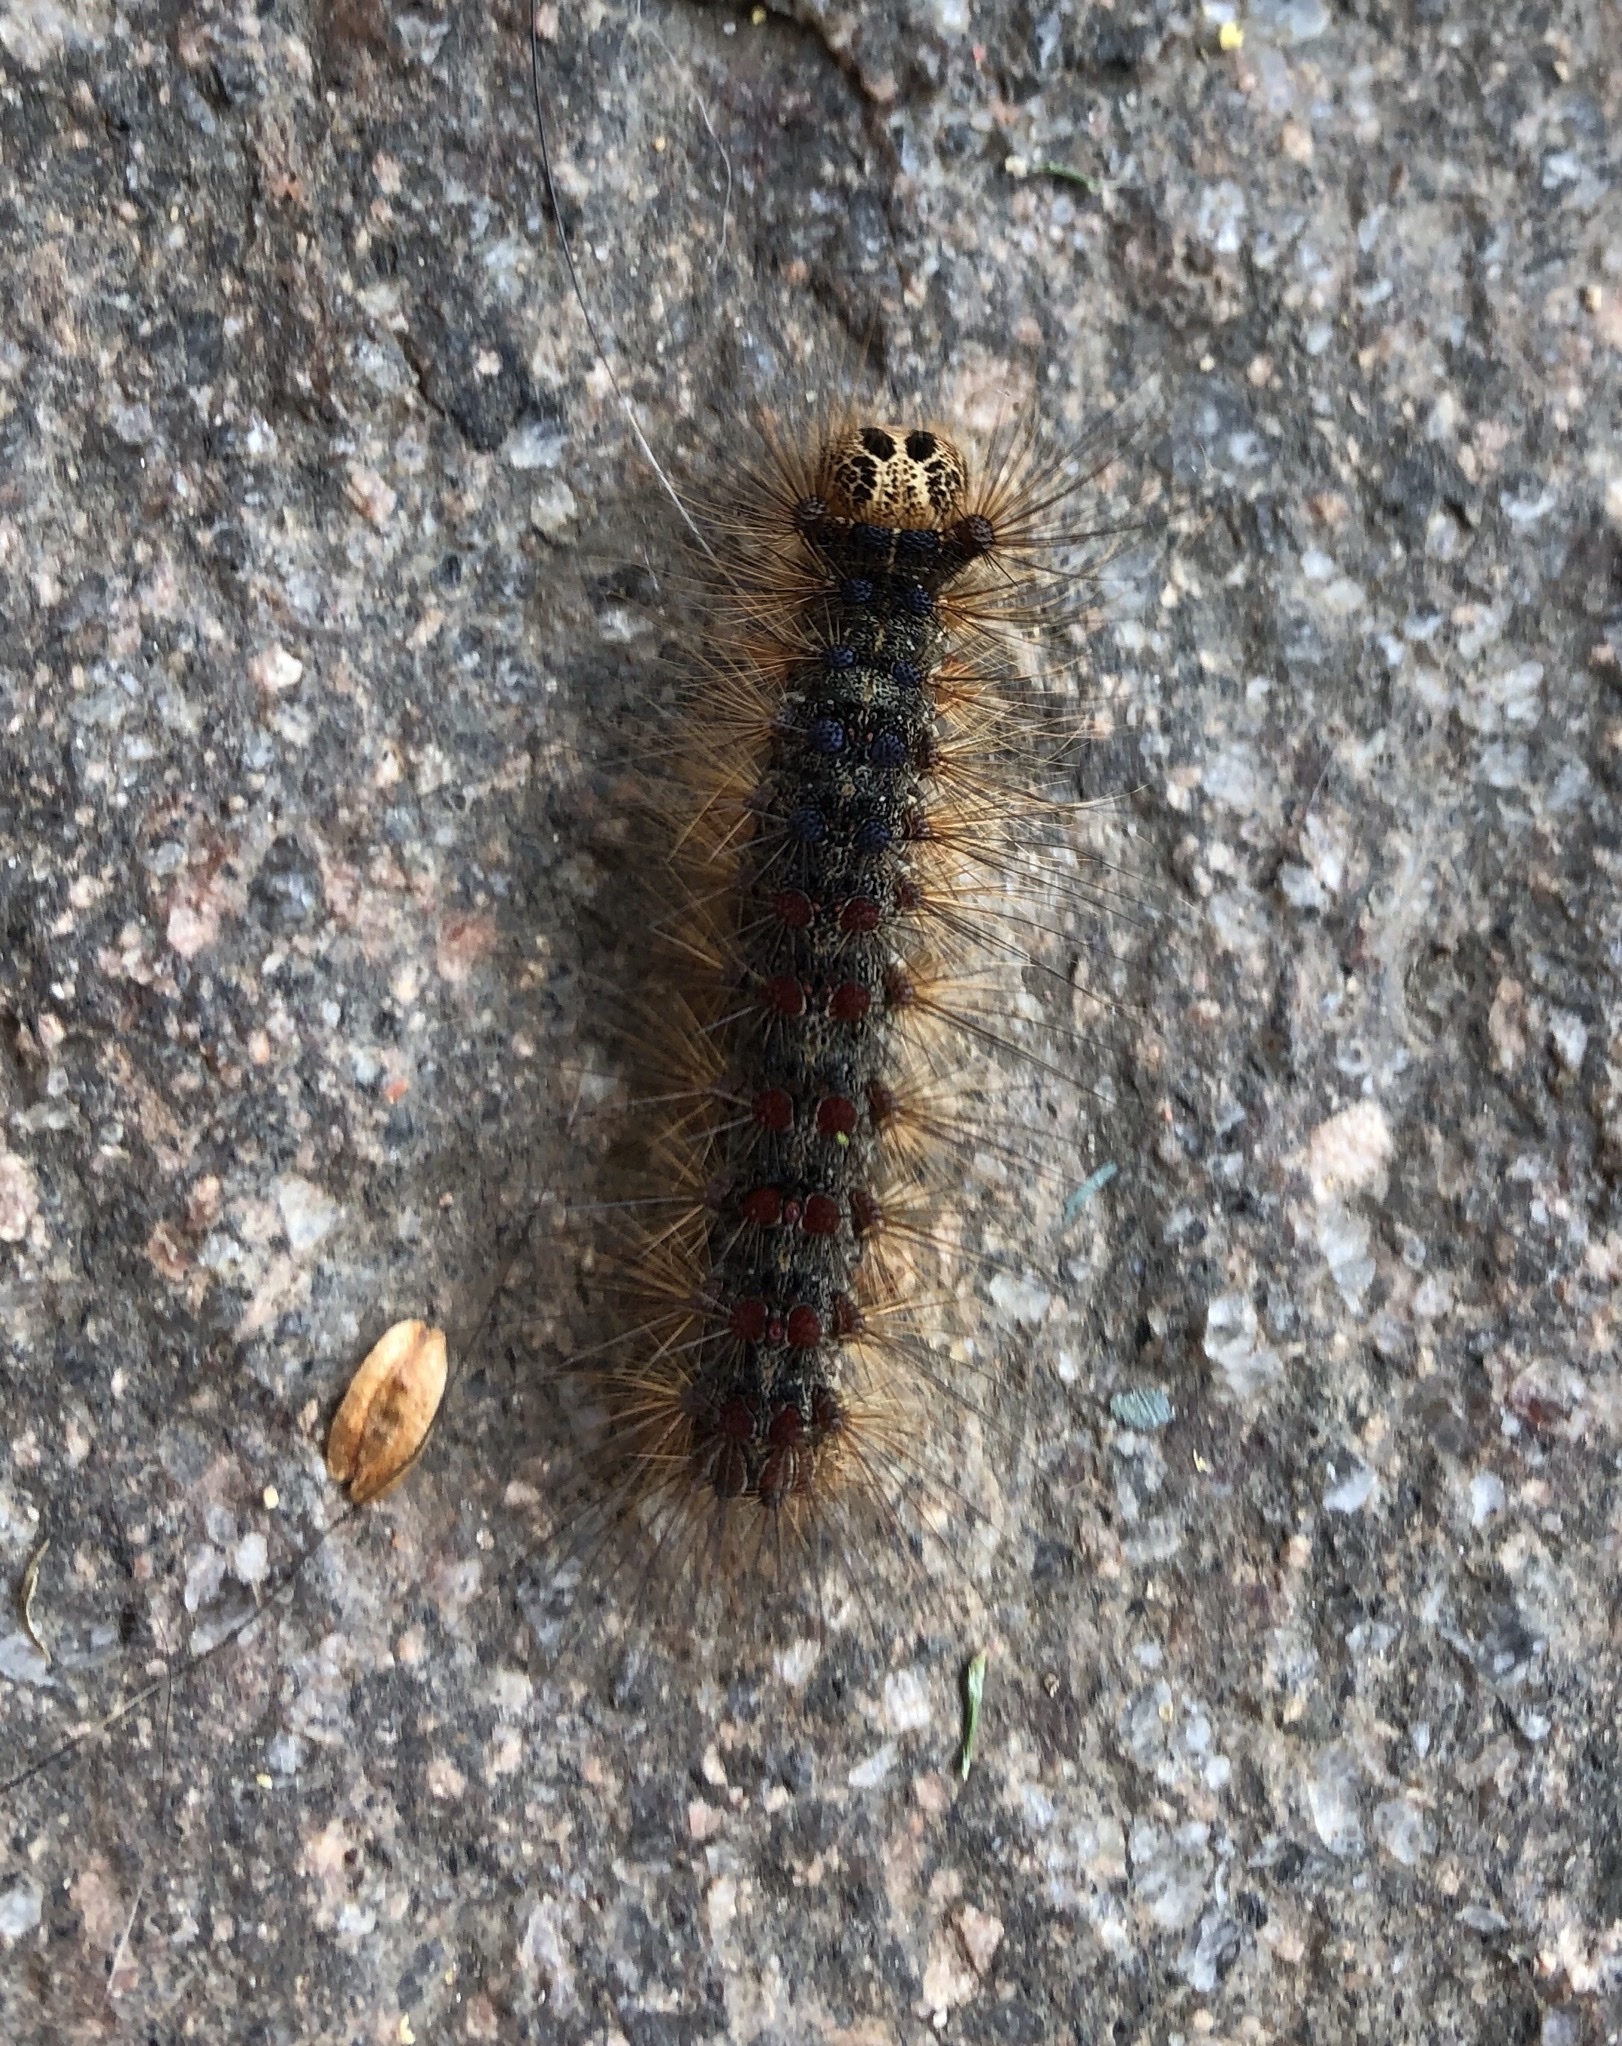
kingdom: Animalia
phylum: Arthropoda
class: Insecta
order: Lepidoptera
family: Erebidae
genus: Lymantria
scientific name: Lymantria dispar
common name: Gypsy moth
